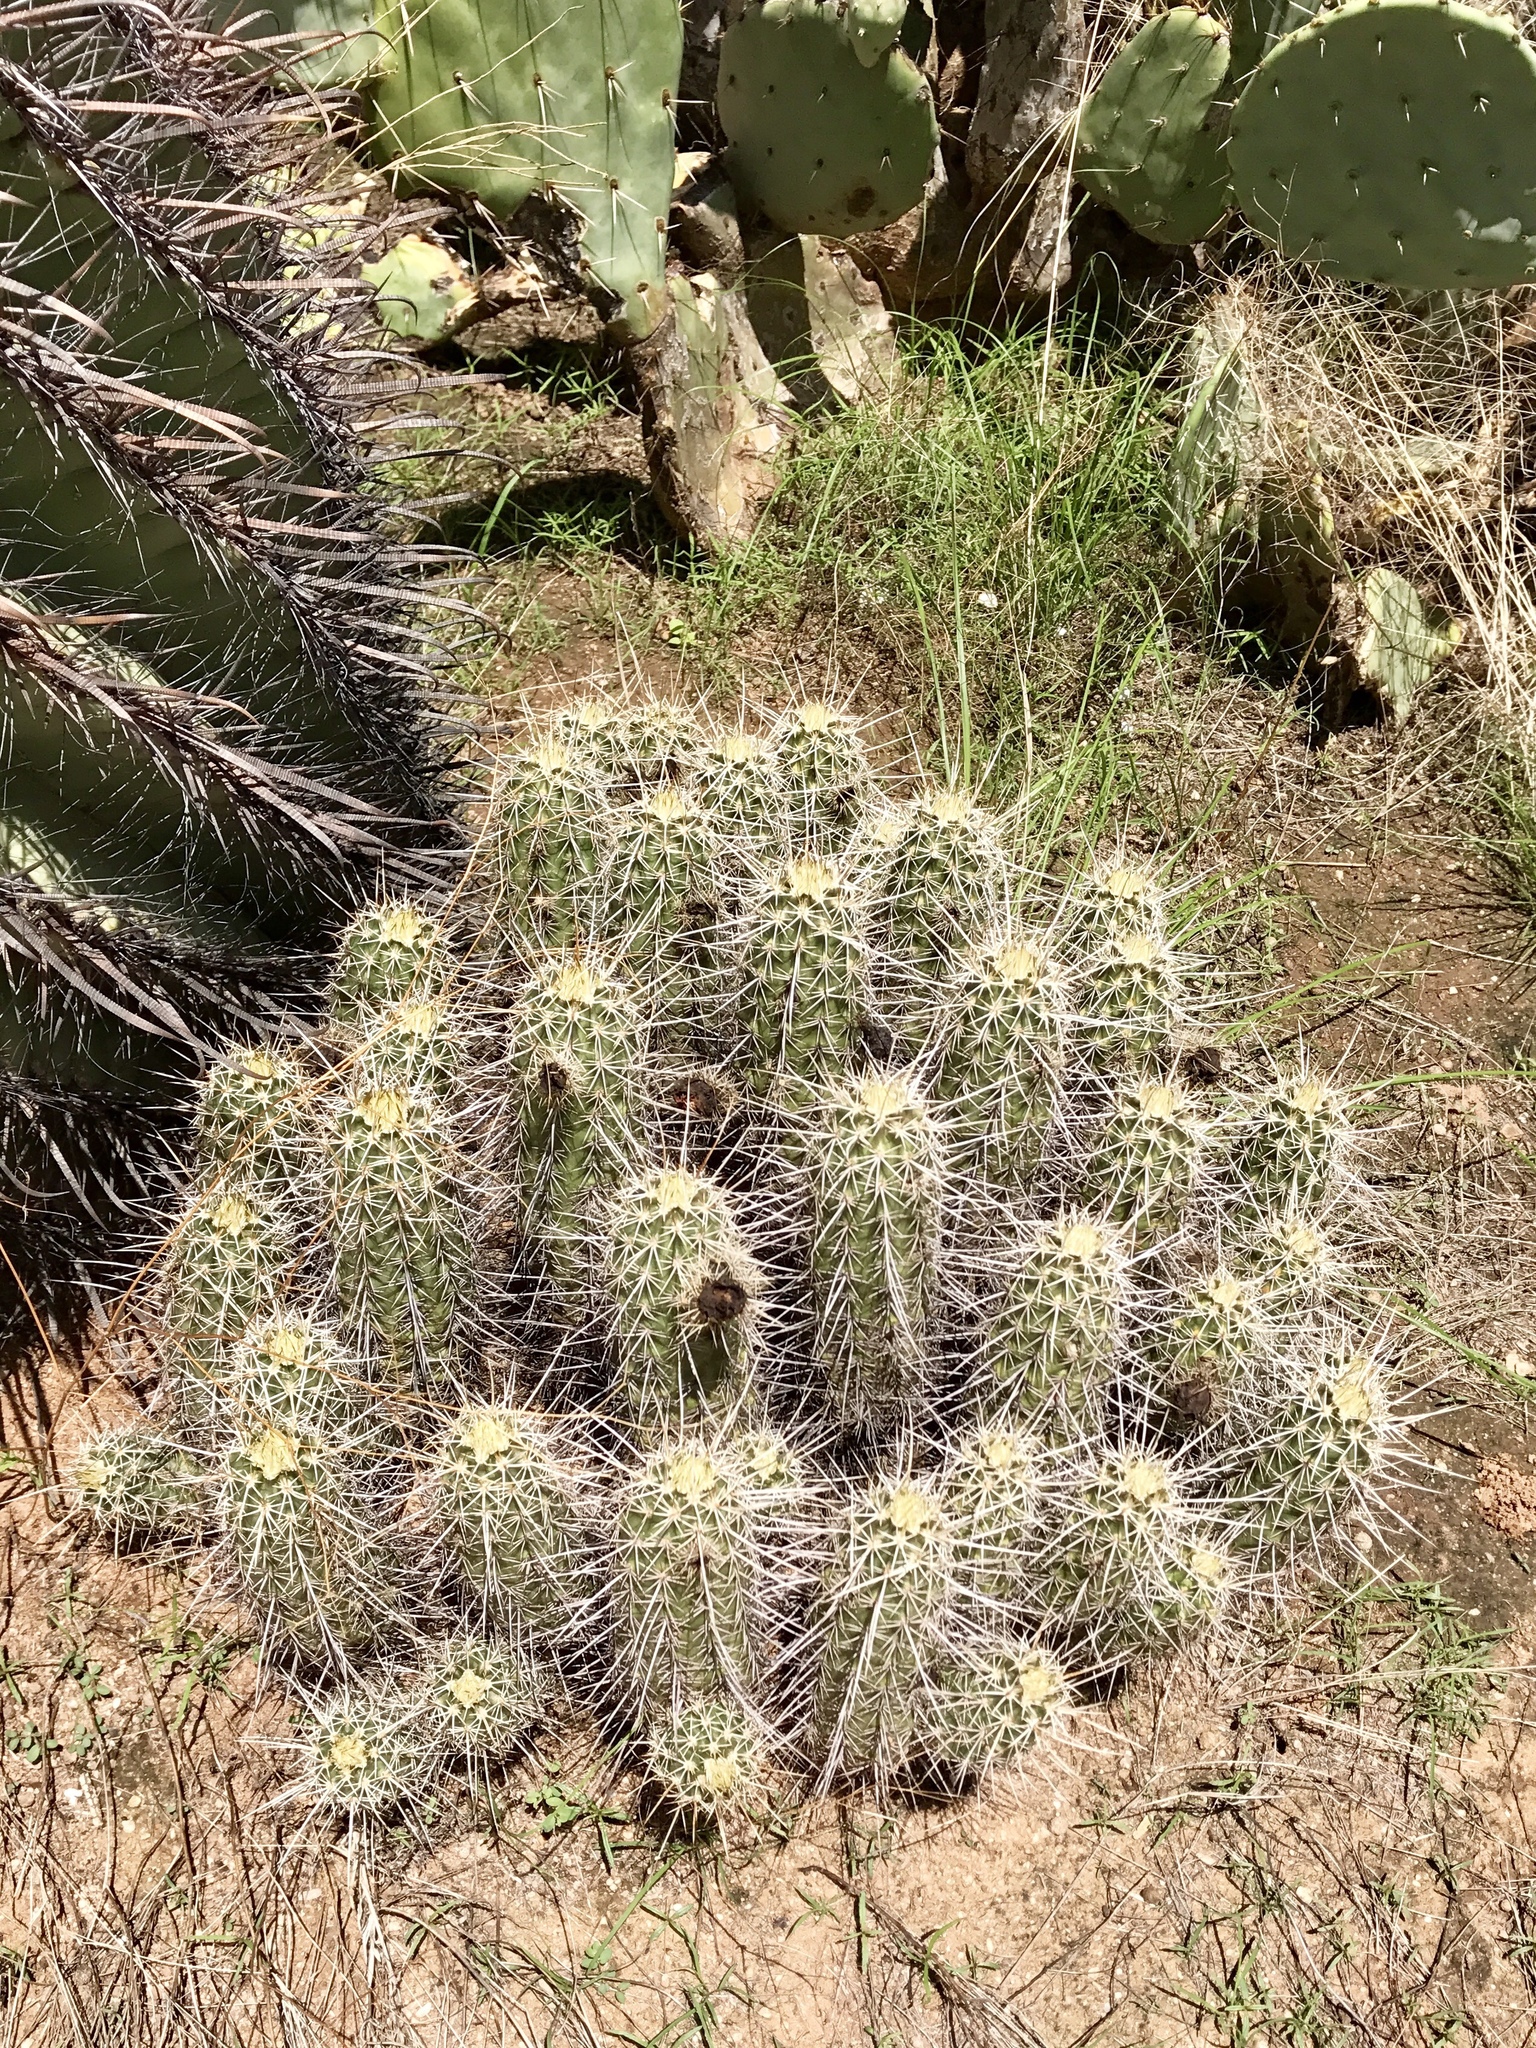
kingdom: Plantae
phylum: Tracheophyta
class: Magnoliopsida
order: Caryophyllales
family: Cactaceae
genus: Echinocereus
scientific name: Echinocereus fasciculatus
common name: Bundle hedgehog
